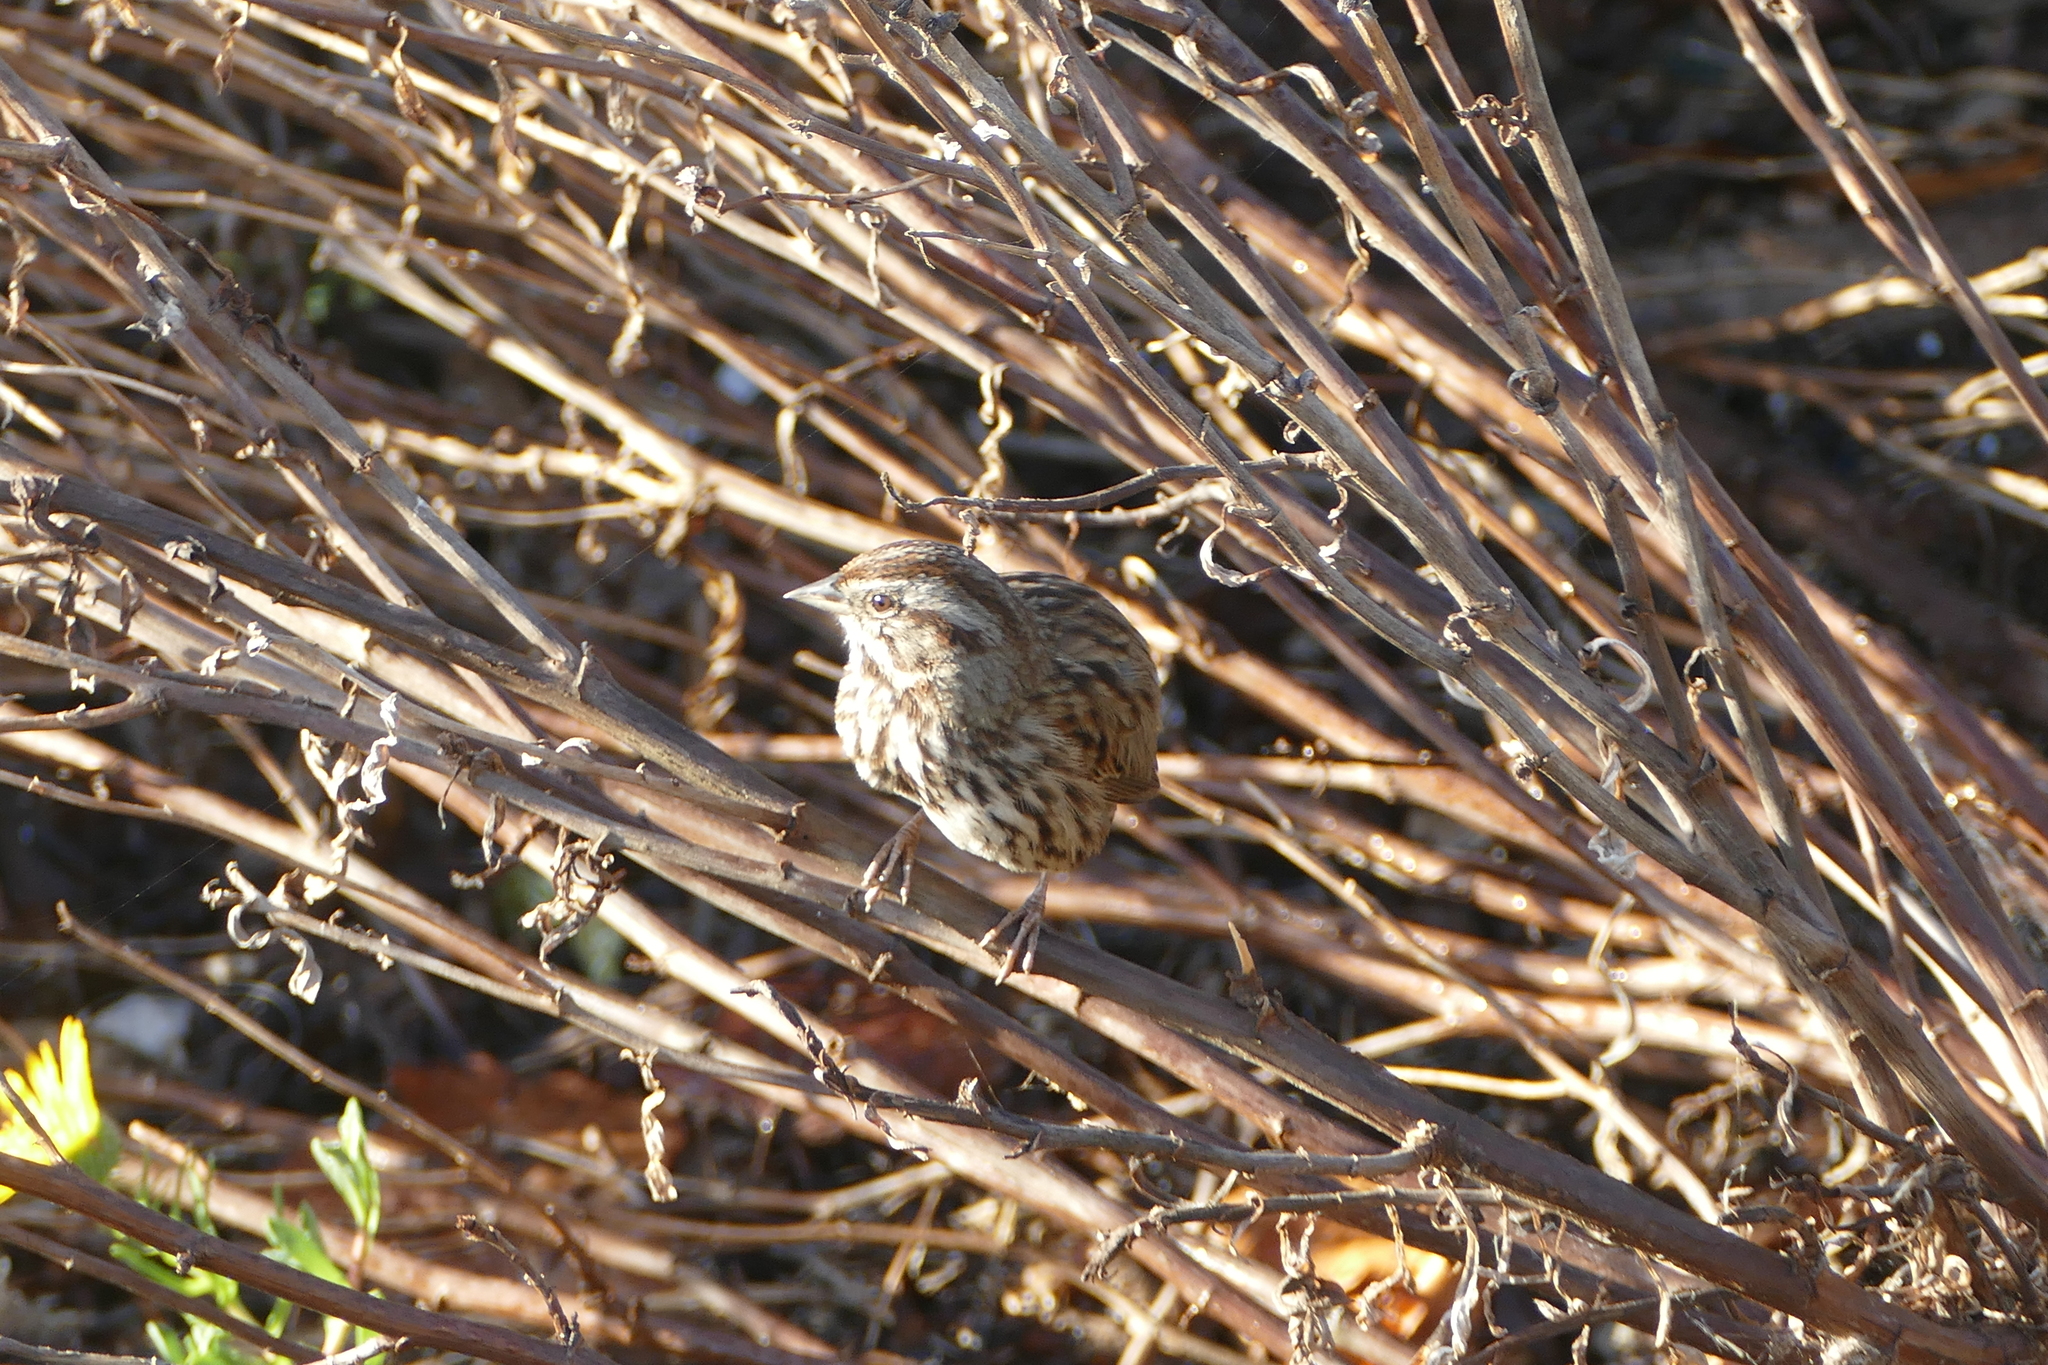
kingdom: Animalia
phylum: Chordata
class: Aves
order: Passeriformes
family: Passerellidae
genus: Melospiza
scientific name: Melospiza melodia
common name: Song sparrow
